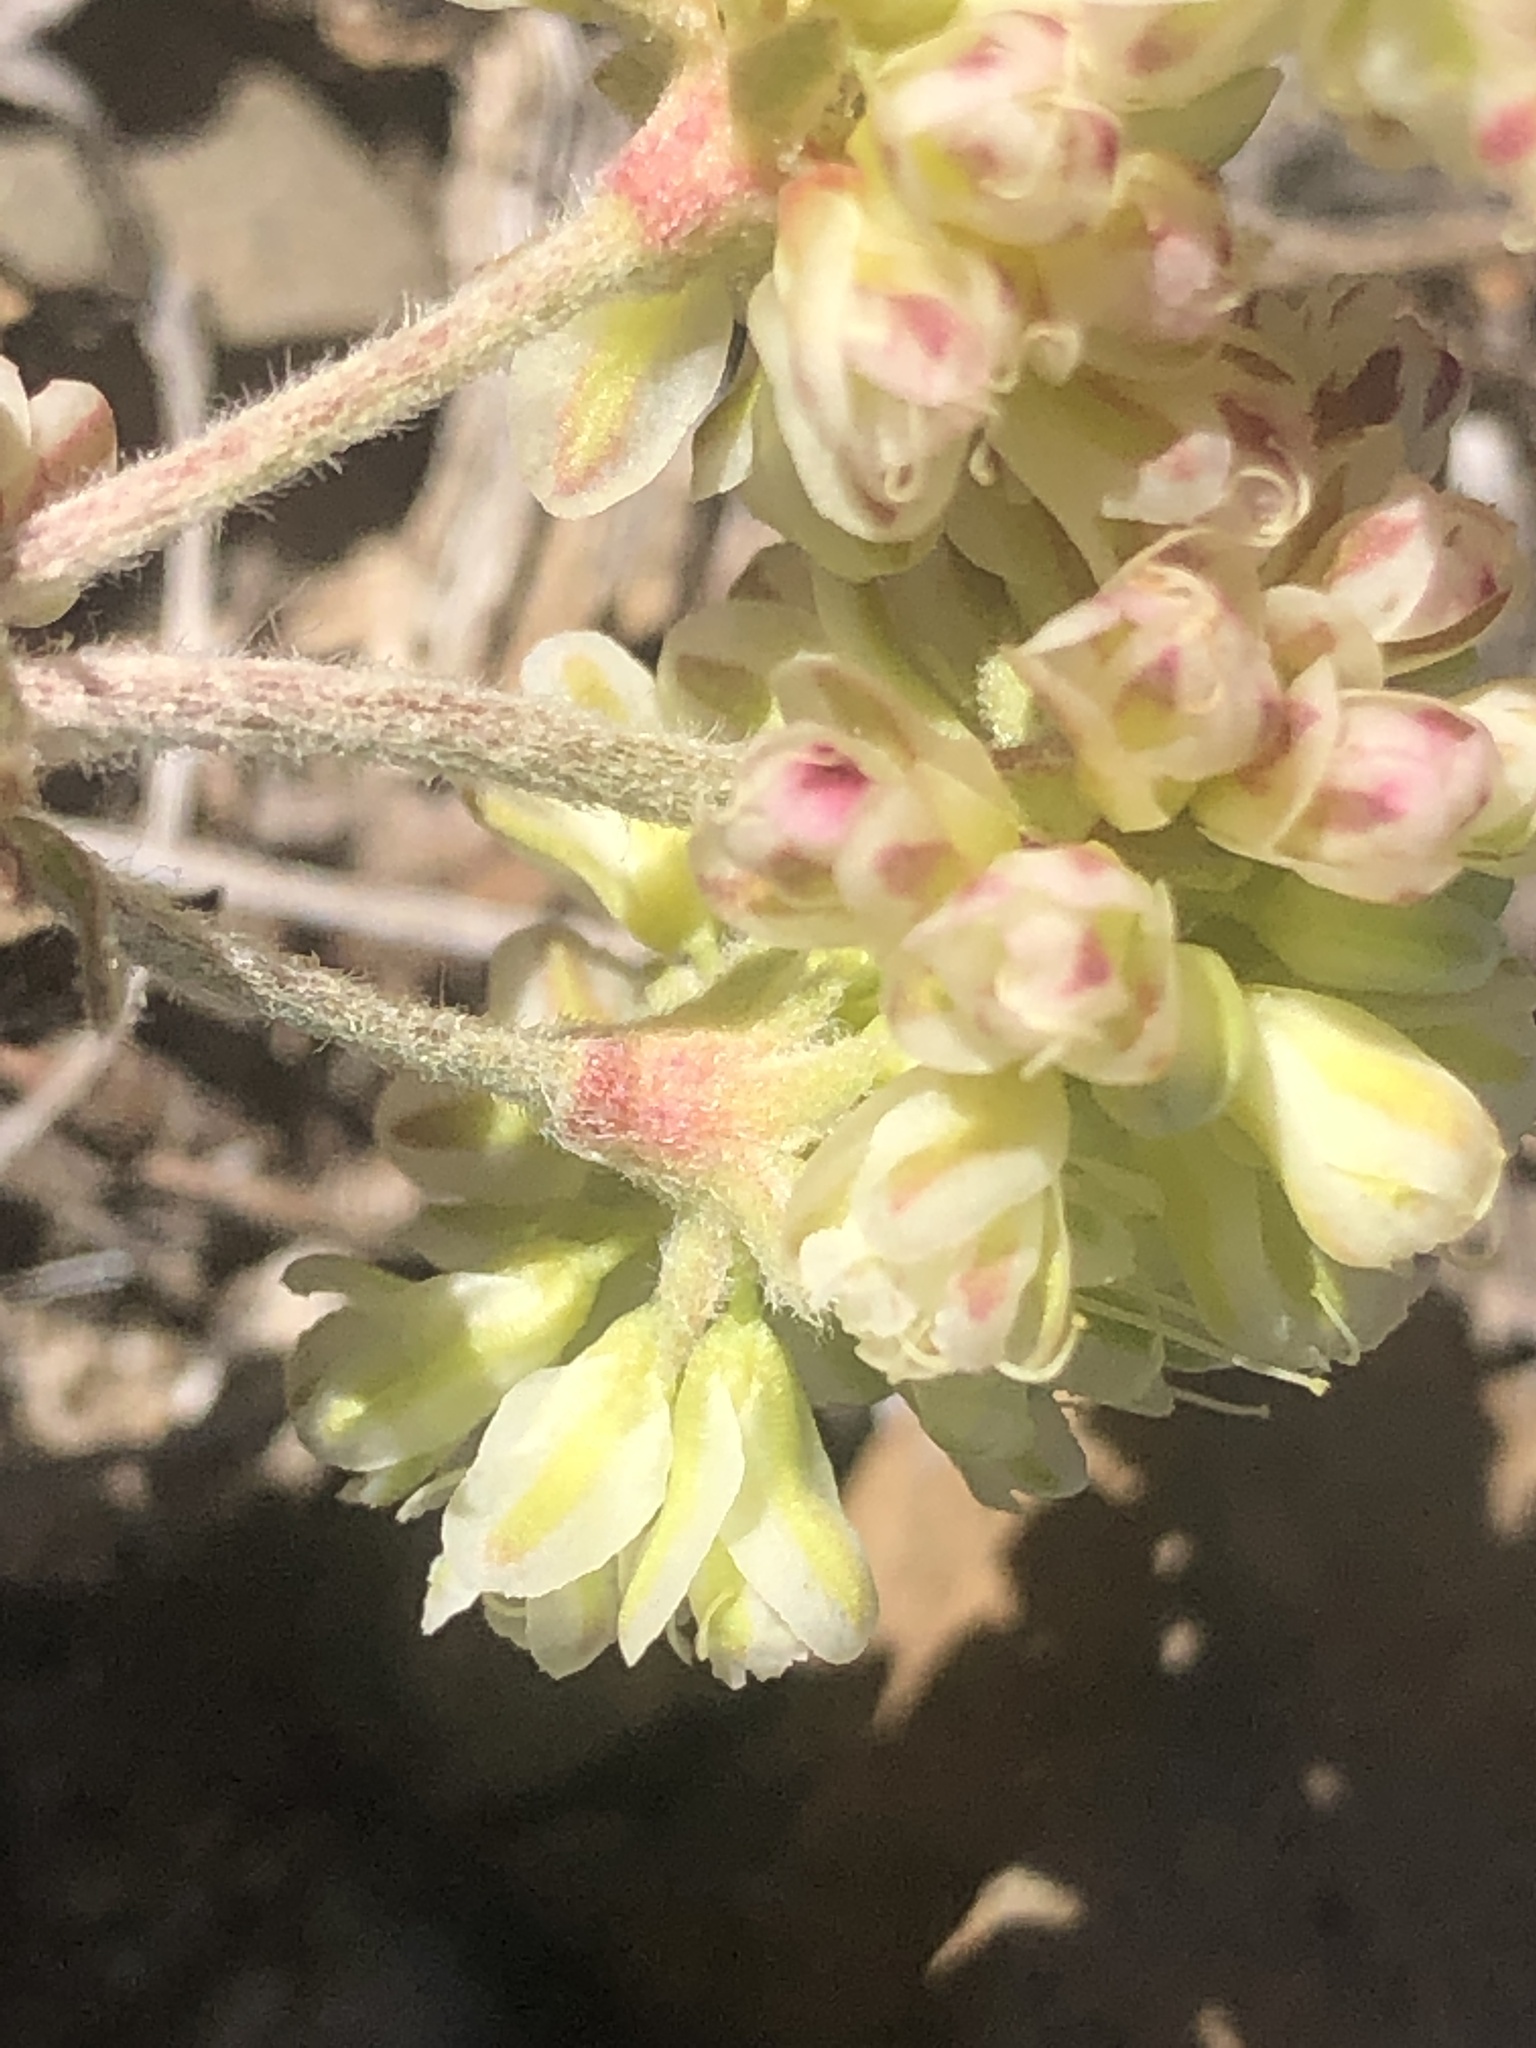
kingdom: Plantae
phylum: Tracheophyta
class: Magnoliopsida
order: Caryophyllales
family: Polygonaceae
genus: Eriogonum
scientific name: Eriogonum umbellatum
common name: Sulfur-buckwheat
